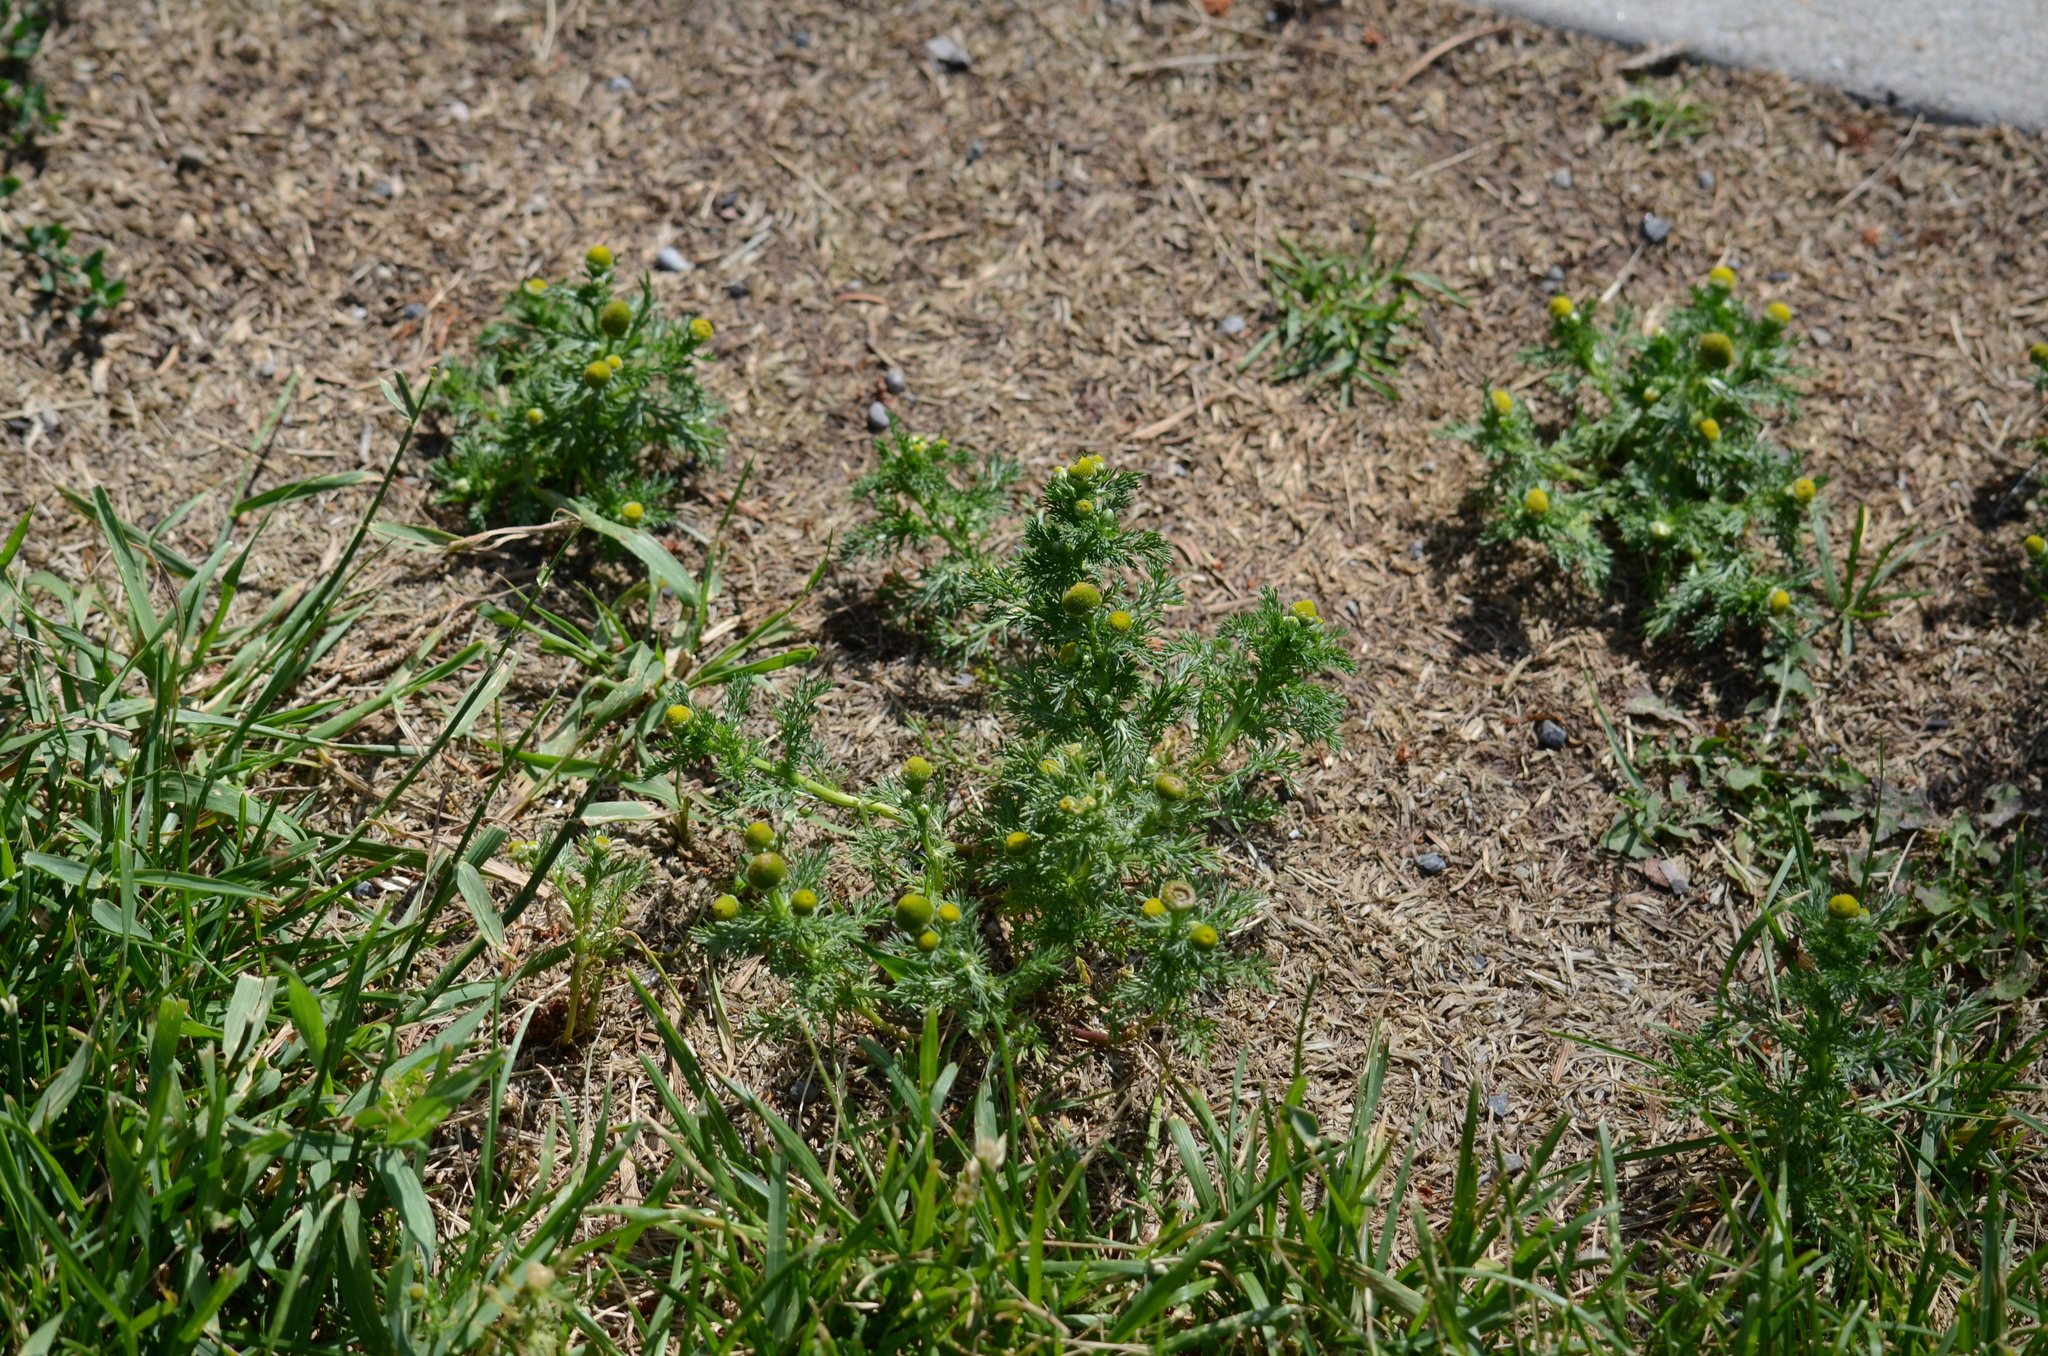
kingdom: Plantae
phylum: Tracheophyta
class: Magnoliopsida
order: Asterales
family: Asteraceae
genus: Matricaria
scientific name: Matricaria discoidea
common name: Disc mayweed
